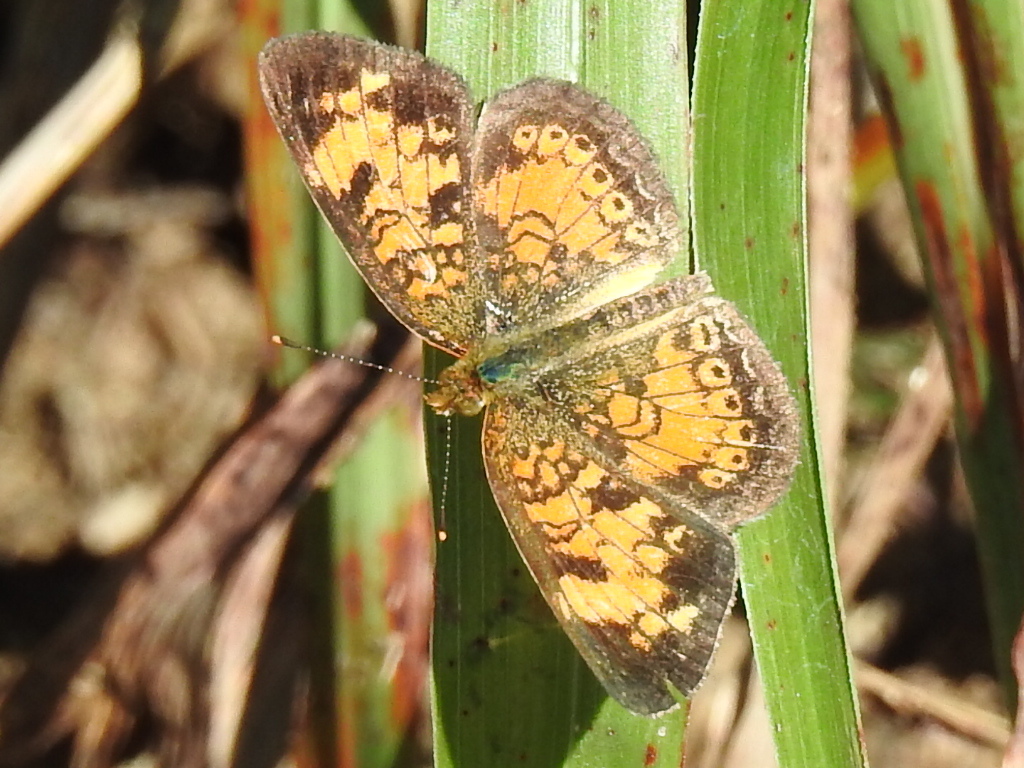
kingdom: Animalia
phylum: Arthropoda
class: Insecta
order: Lepidoptera
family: Nymphalidae
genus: Phyciodes
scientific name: Phyciodes tharos
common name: Pearl crescent
